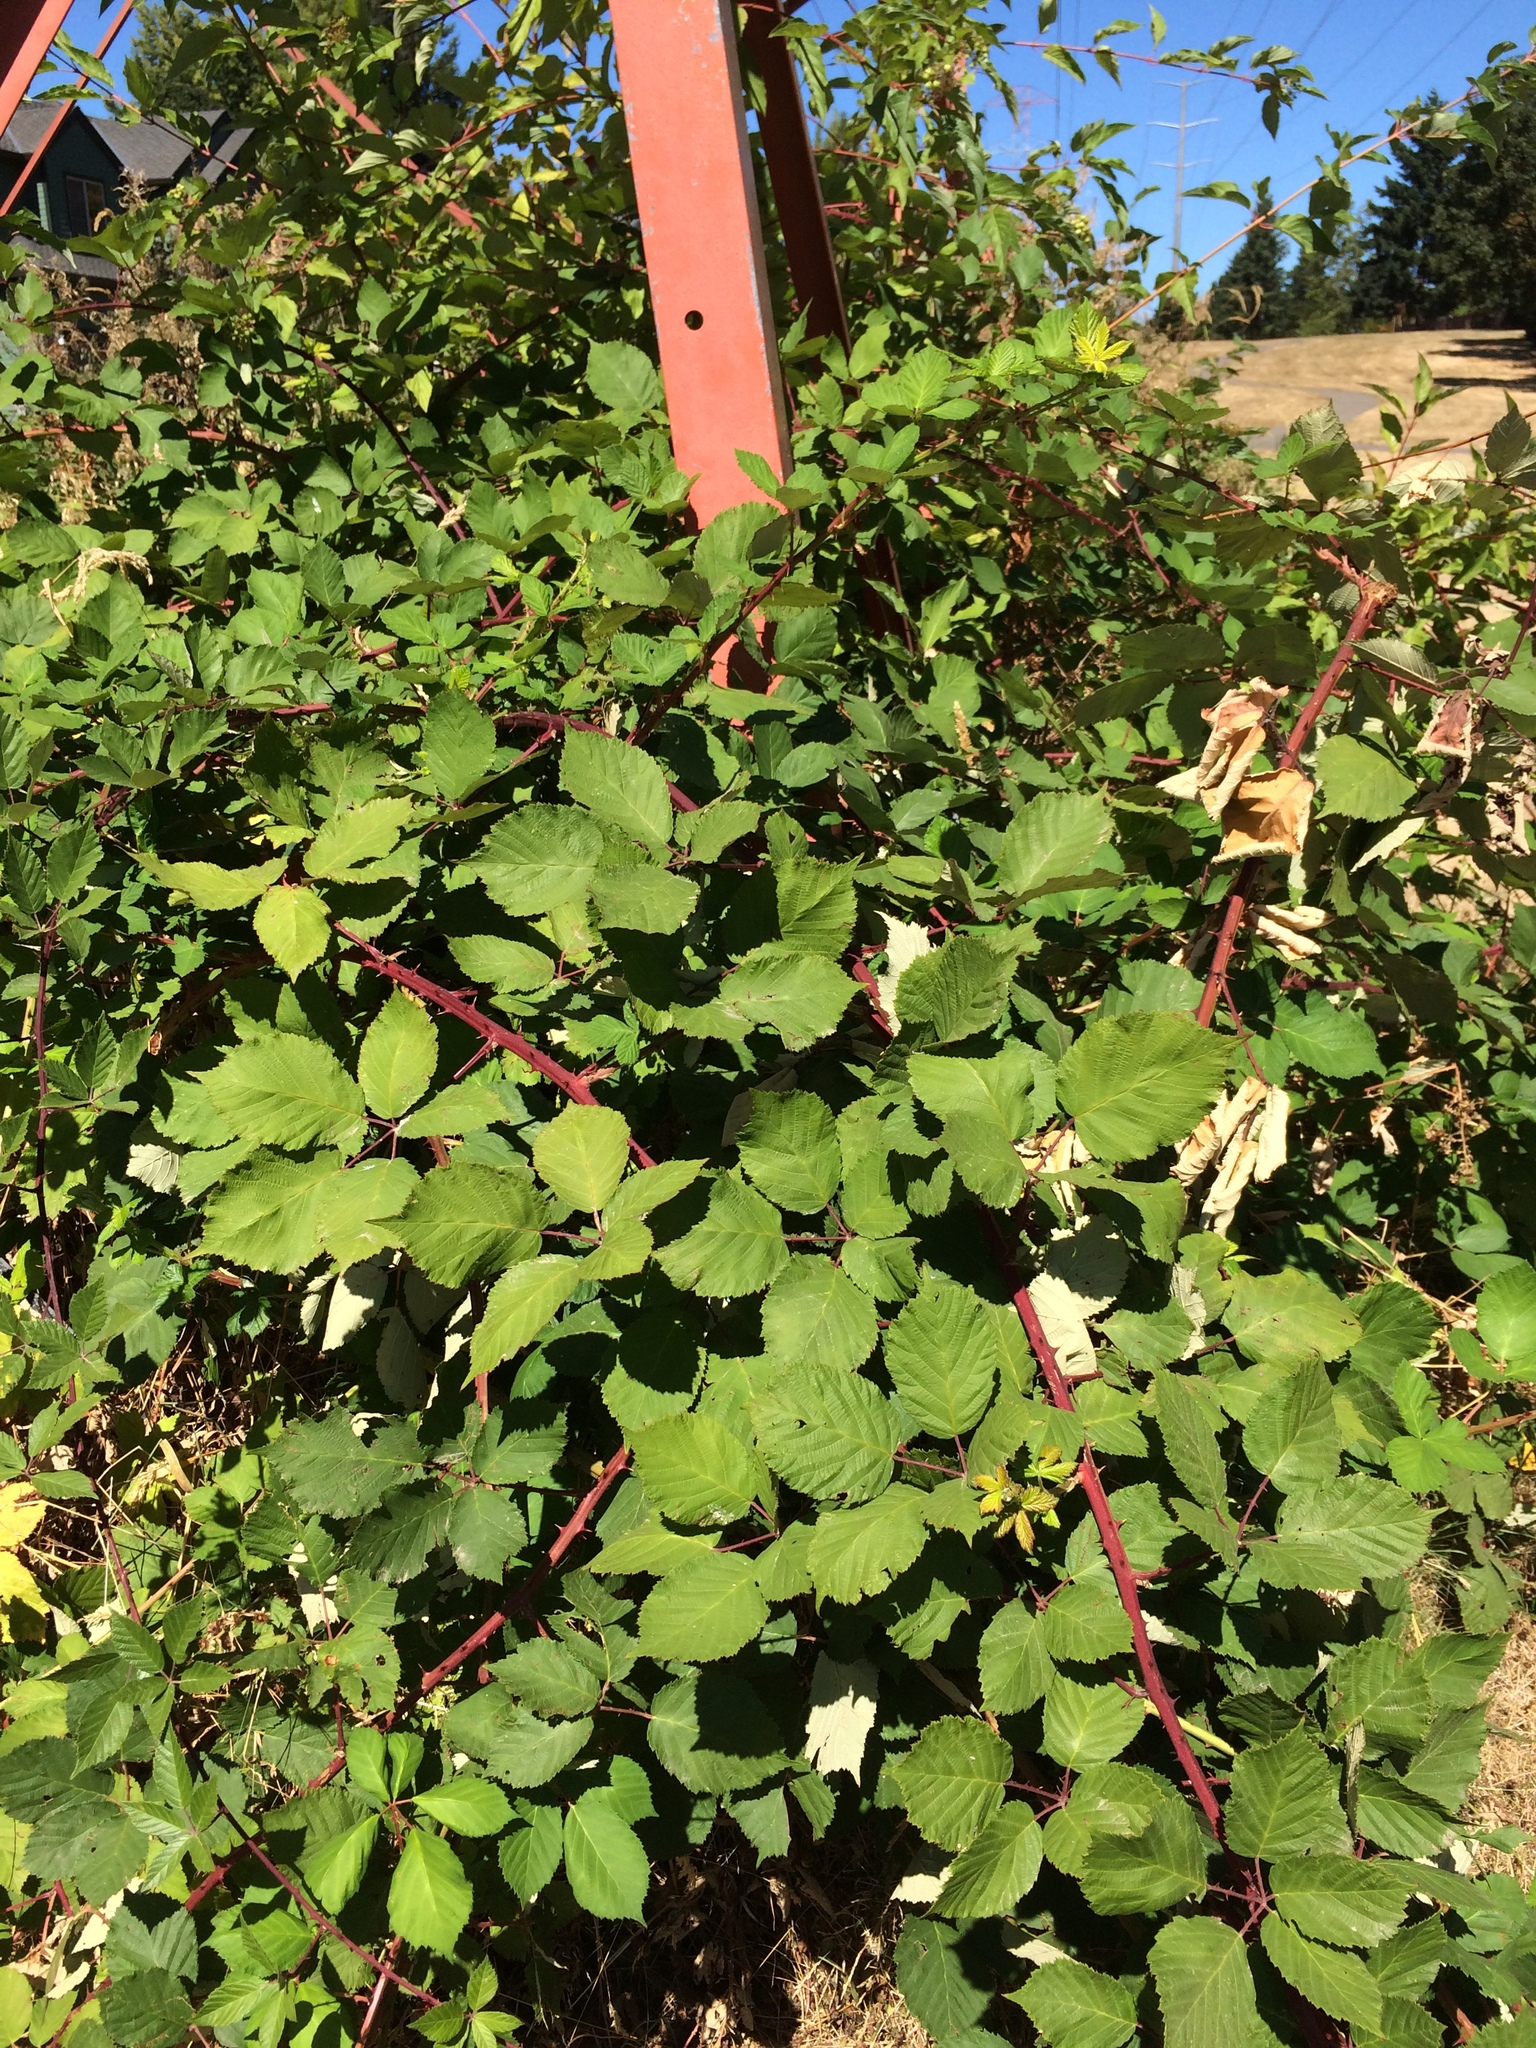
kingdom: Plantae
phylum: Tracheophyta
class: Magnoliopsida
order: Rosales
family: Rosaceae
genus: Rubus
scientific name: Rubus armeniacus
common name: Himalayan blackberry
